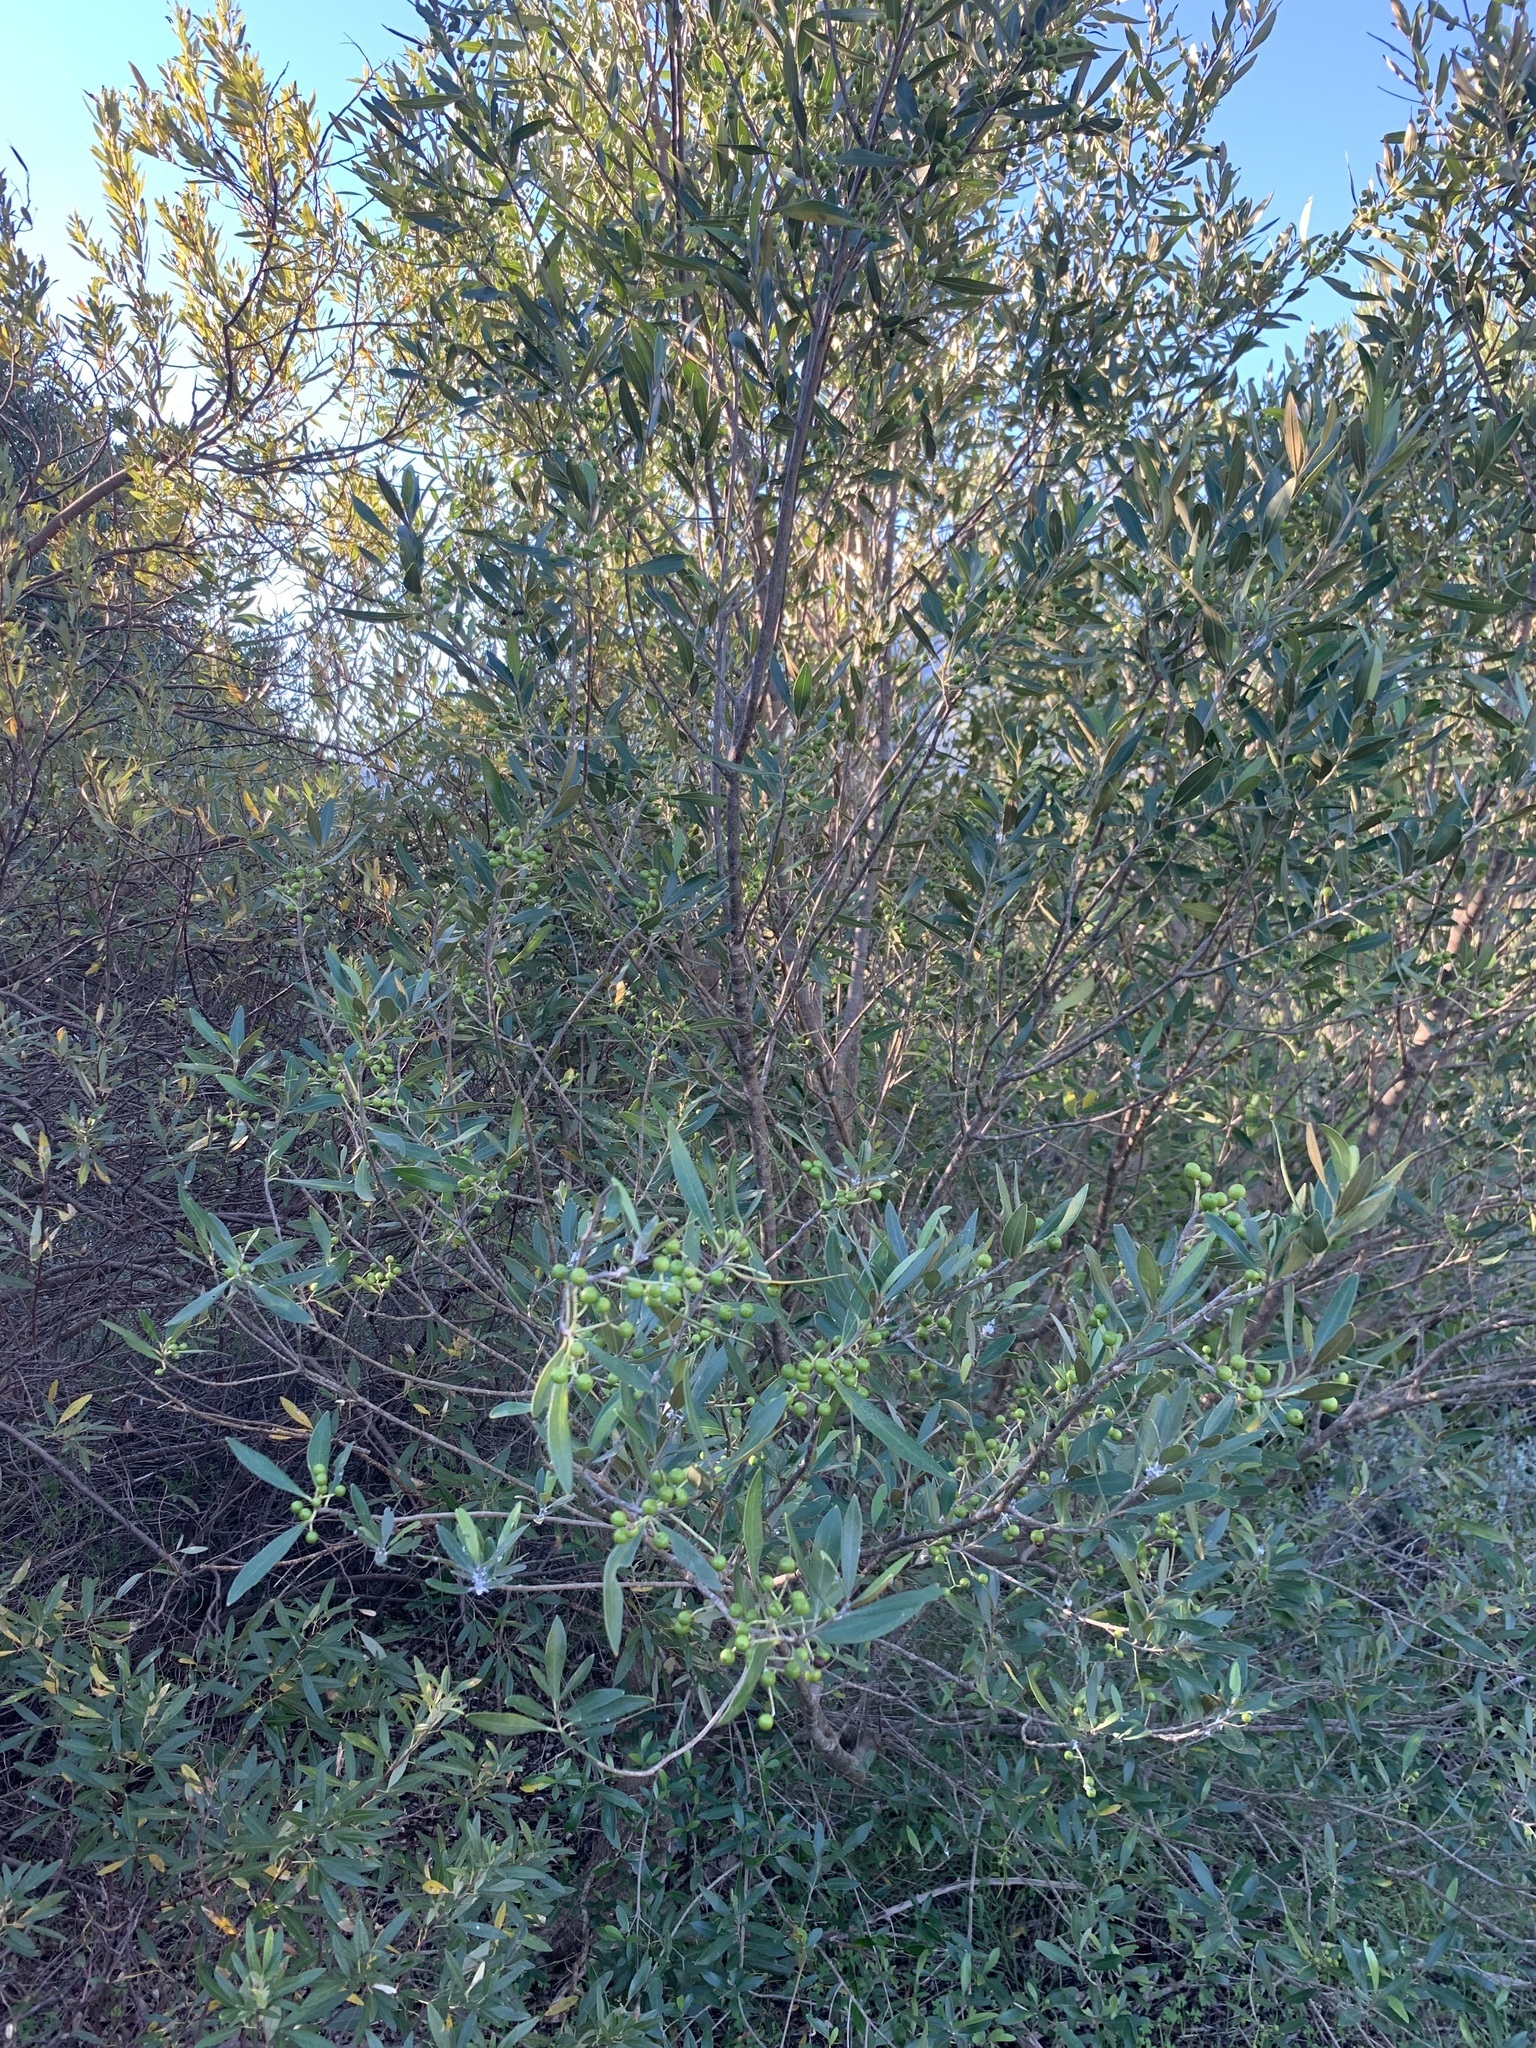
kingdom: Plantae
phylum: Tracheophyta
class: Magnoliopsida
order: Lamiales
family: Oleaceae
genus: Olea
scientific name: Olea europaea
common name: Olive
